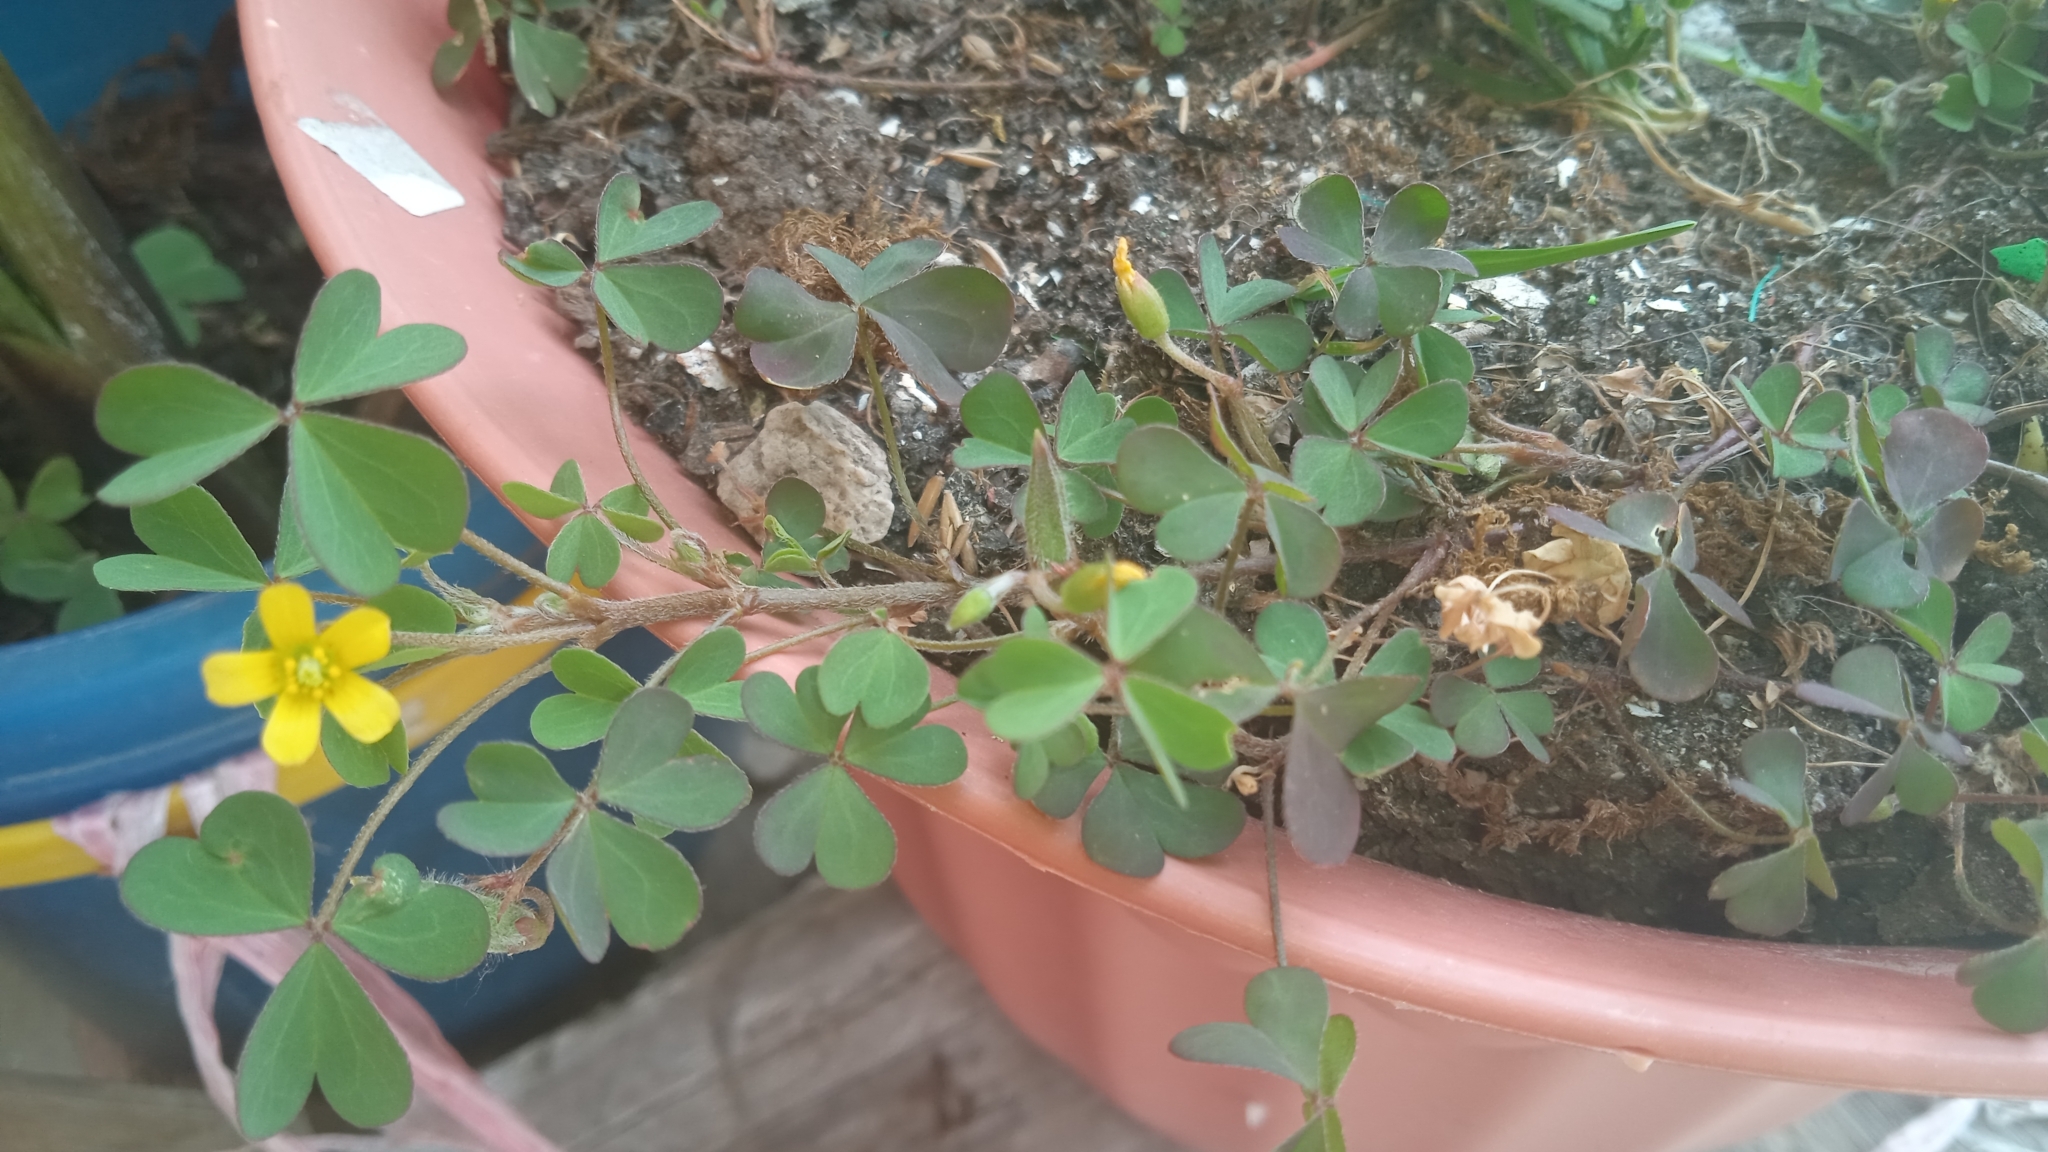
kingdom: Plantae
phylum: Tracheophyta
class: Magnoliopsida
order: Oxalidales
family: Oxalidaceae
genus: Oxalis
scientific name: Oxalis dillenii
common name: Sussex yellow-sorrel
